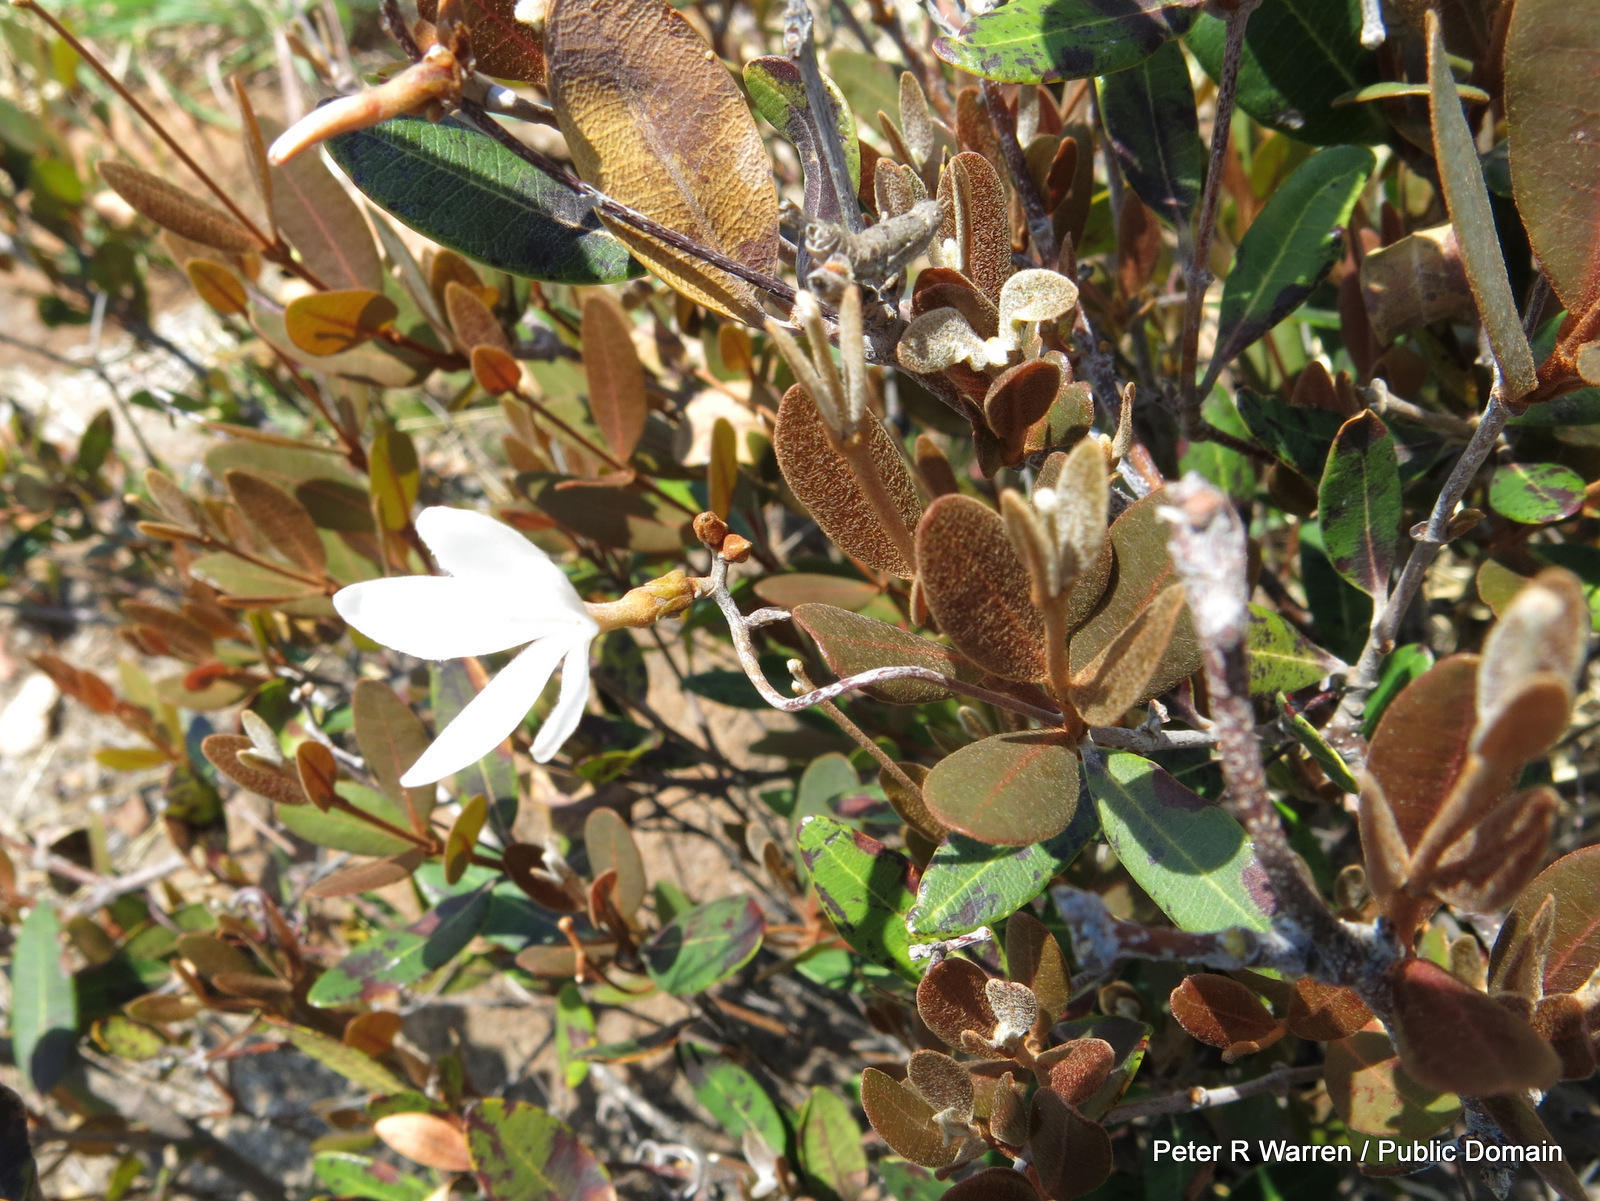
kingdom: Plantae
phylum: Tracheophyta
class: Magnoliopsida
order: Gentianales
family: Apocynaceae
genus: Ancylobothrys
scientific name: Ancylobothrys capensis
